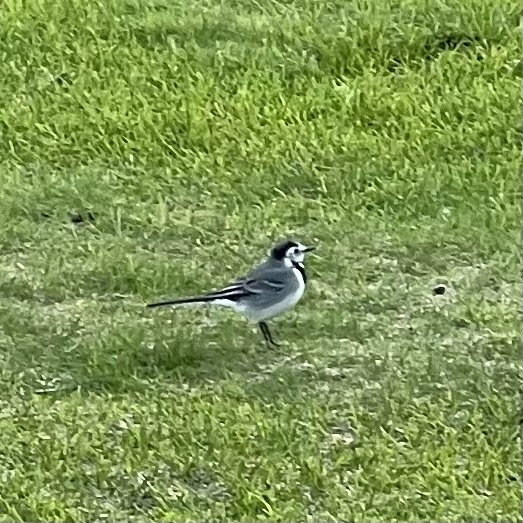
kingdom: Animalia
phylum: Chordata
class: Aves
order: Passeriformes
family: Motacillidae
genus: Motacilla
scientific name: Motacilla alba
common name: White wagtail
